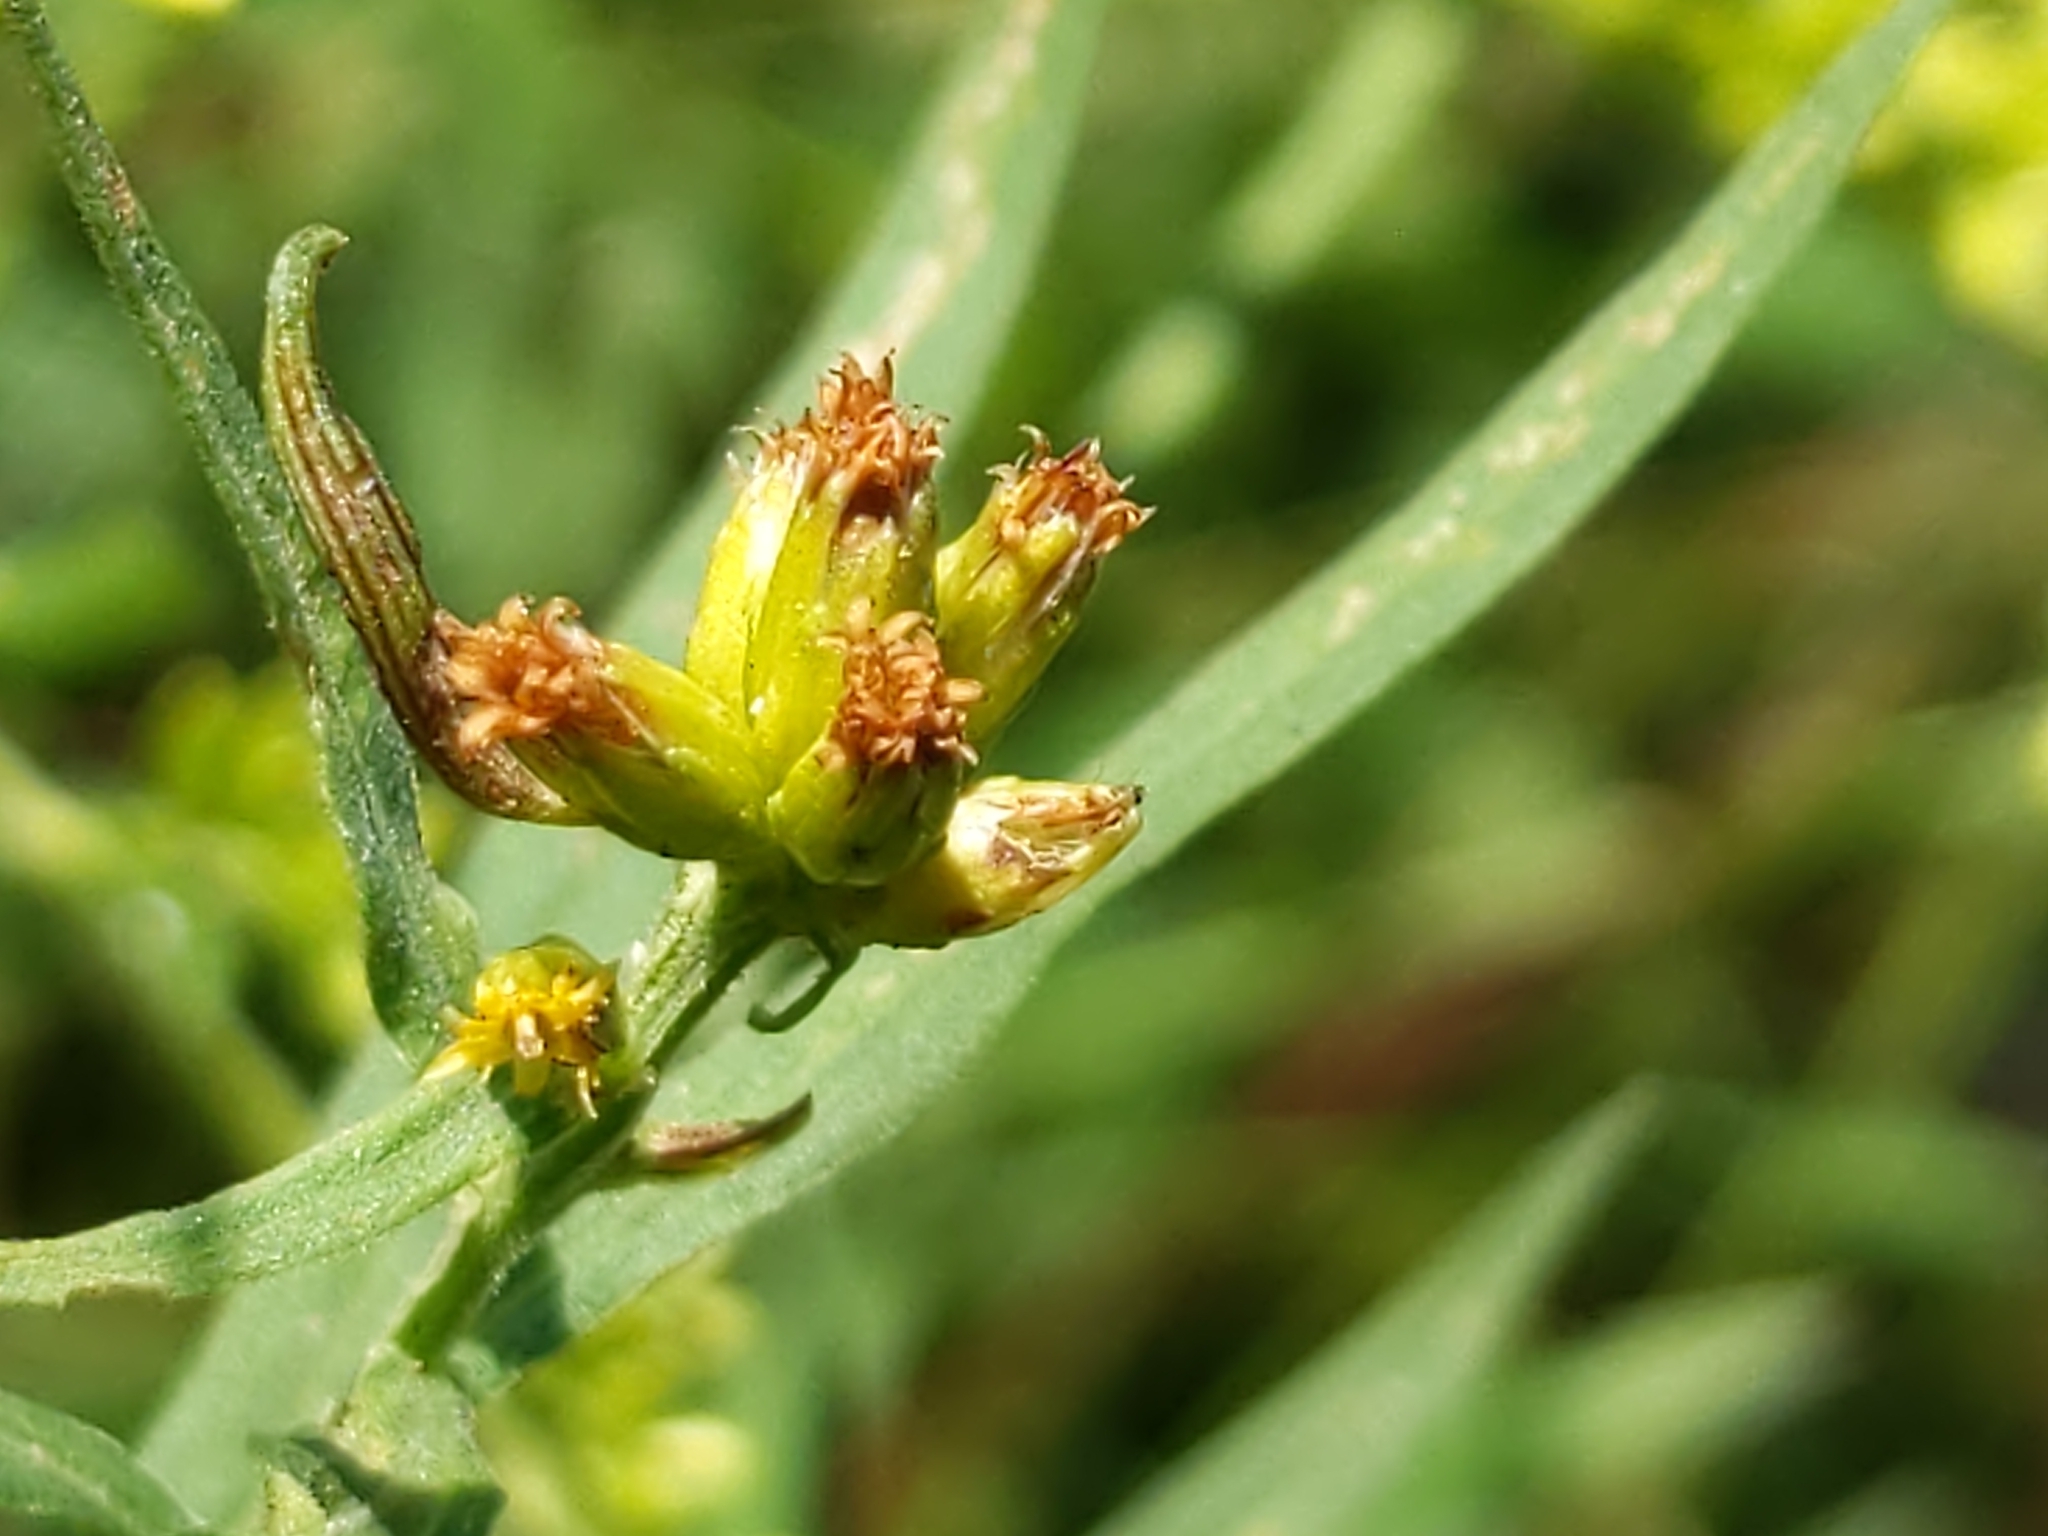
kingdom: Animalia
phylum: Arthropoda
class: Insecta
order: Diptera
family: Cecidomyiidae
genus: Rhopalomyia
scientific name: Rhopalomyia pedicellata
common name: Goldentop pedicellate gall midge
